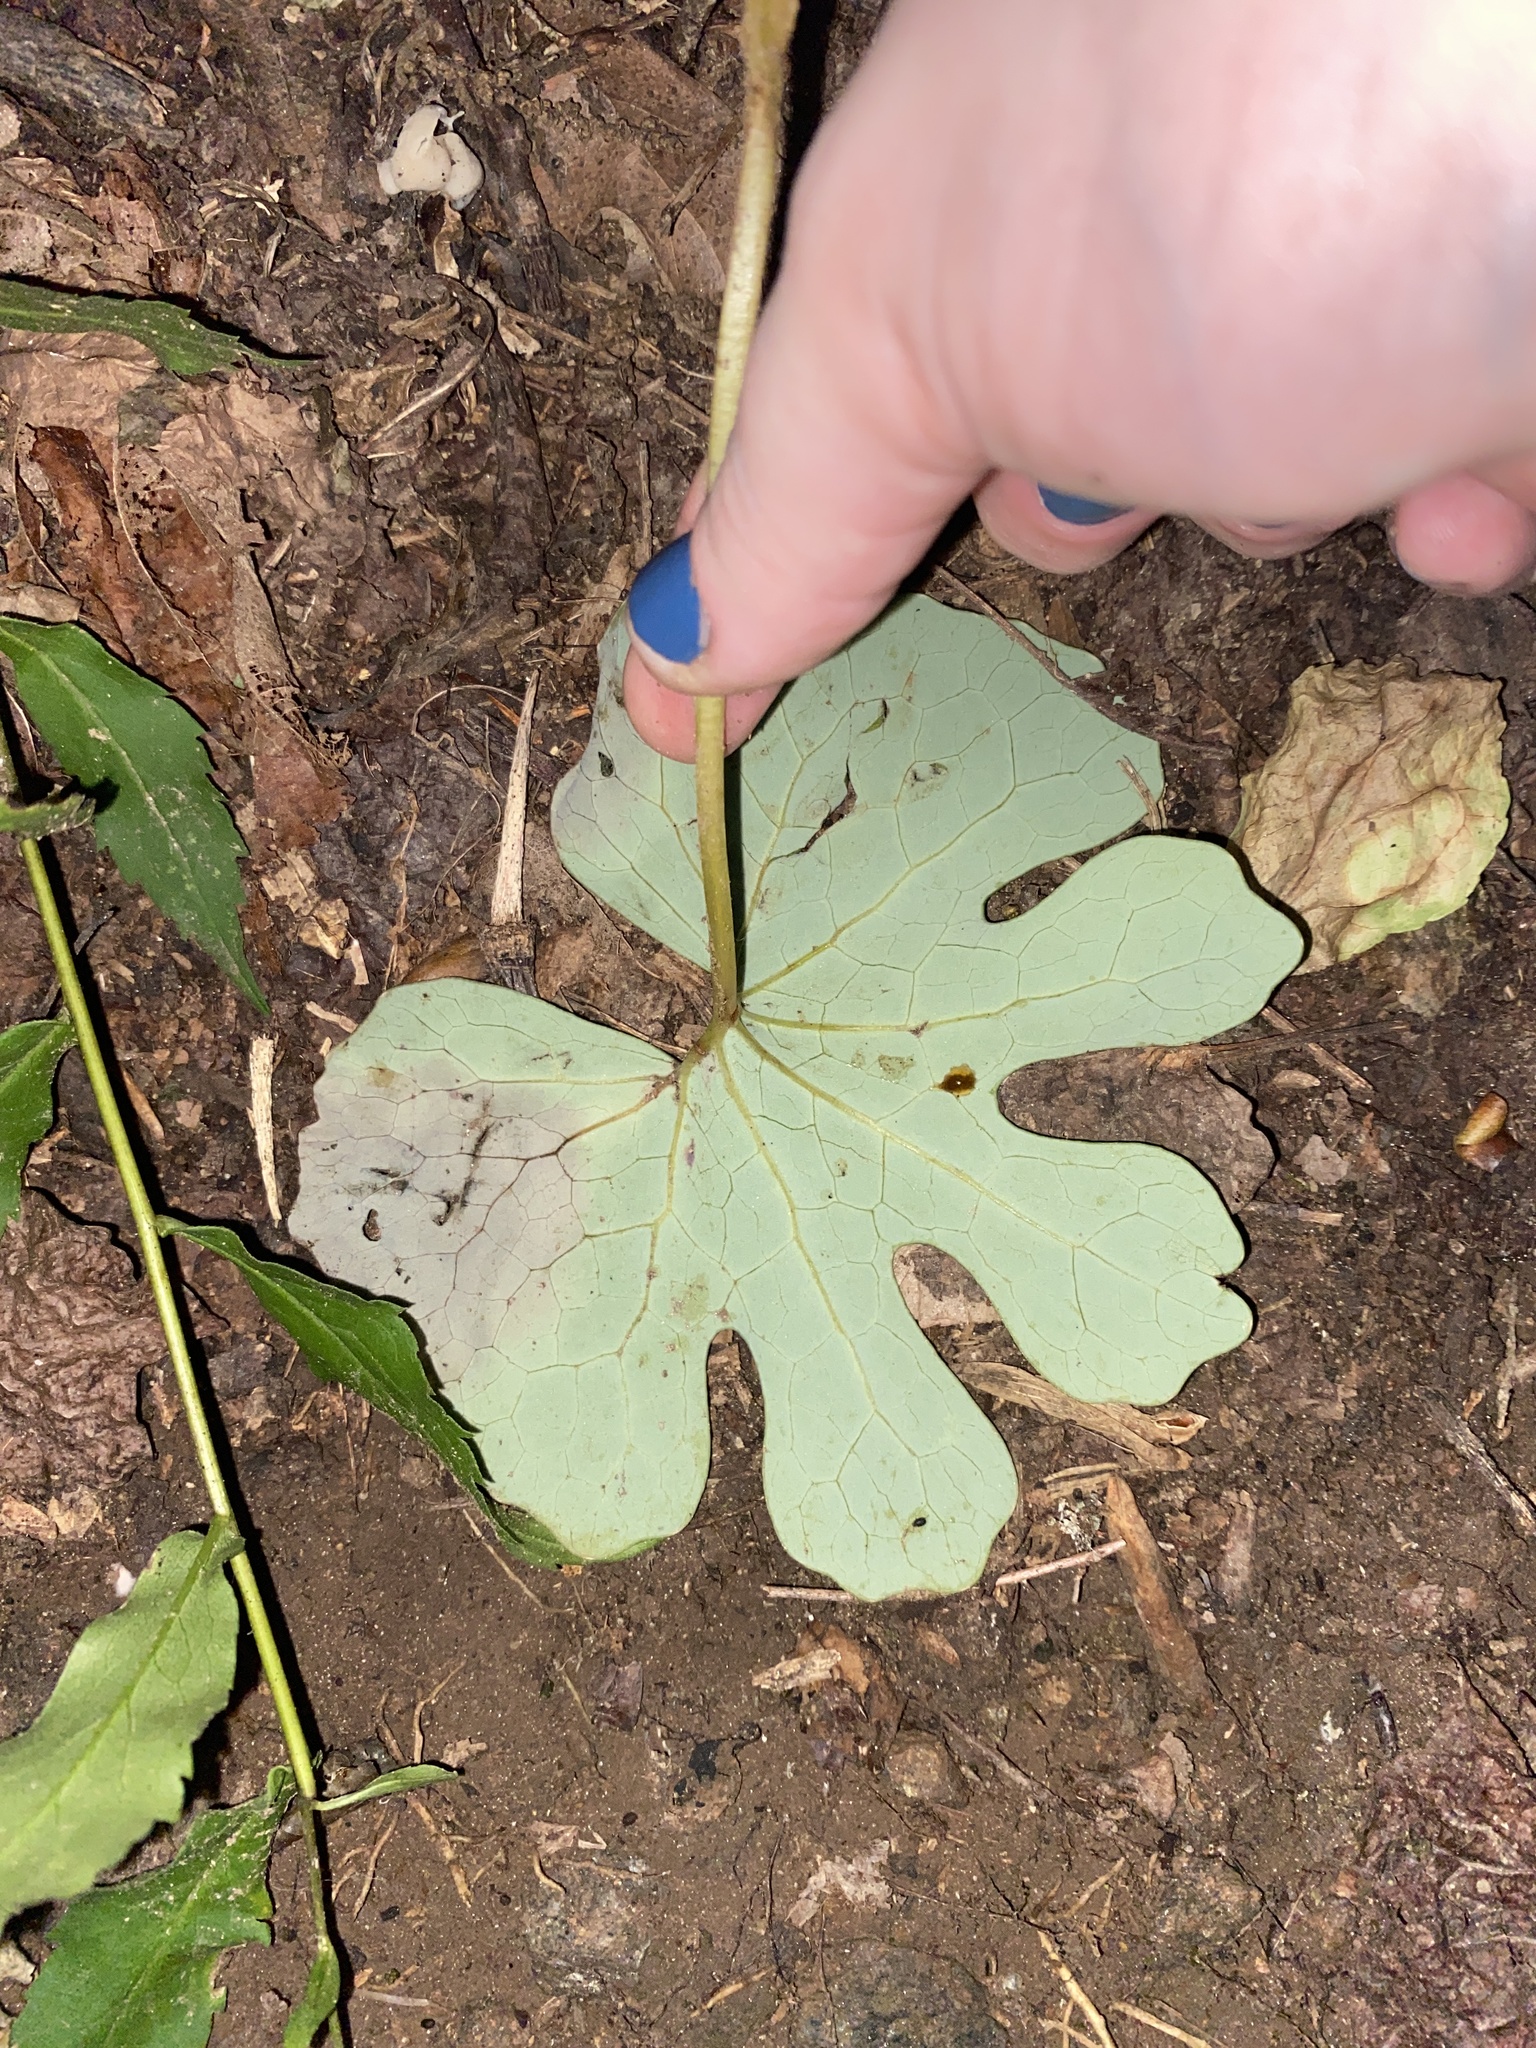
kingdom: Plantae
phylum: Tracheophyta
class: Magnoliopsida
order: Ranunculales
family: Papaveraceae
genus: Sanguinaria
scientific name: Sanguinaria canadensis
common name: Bloodroot
